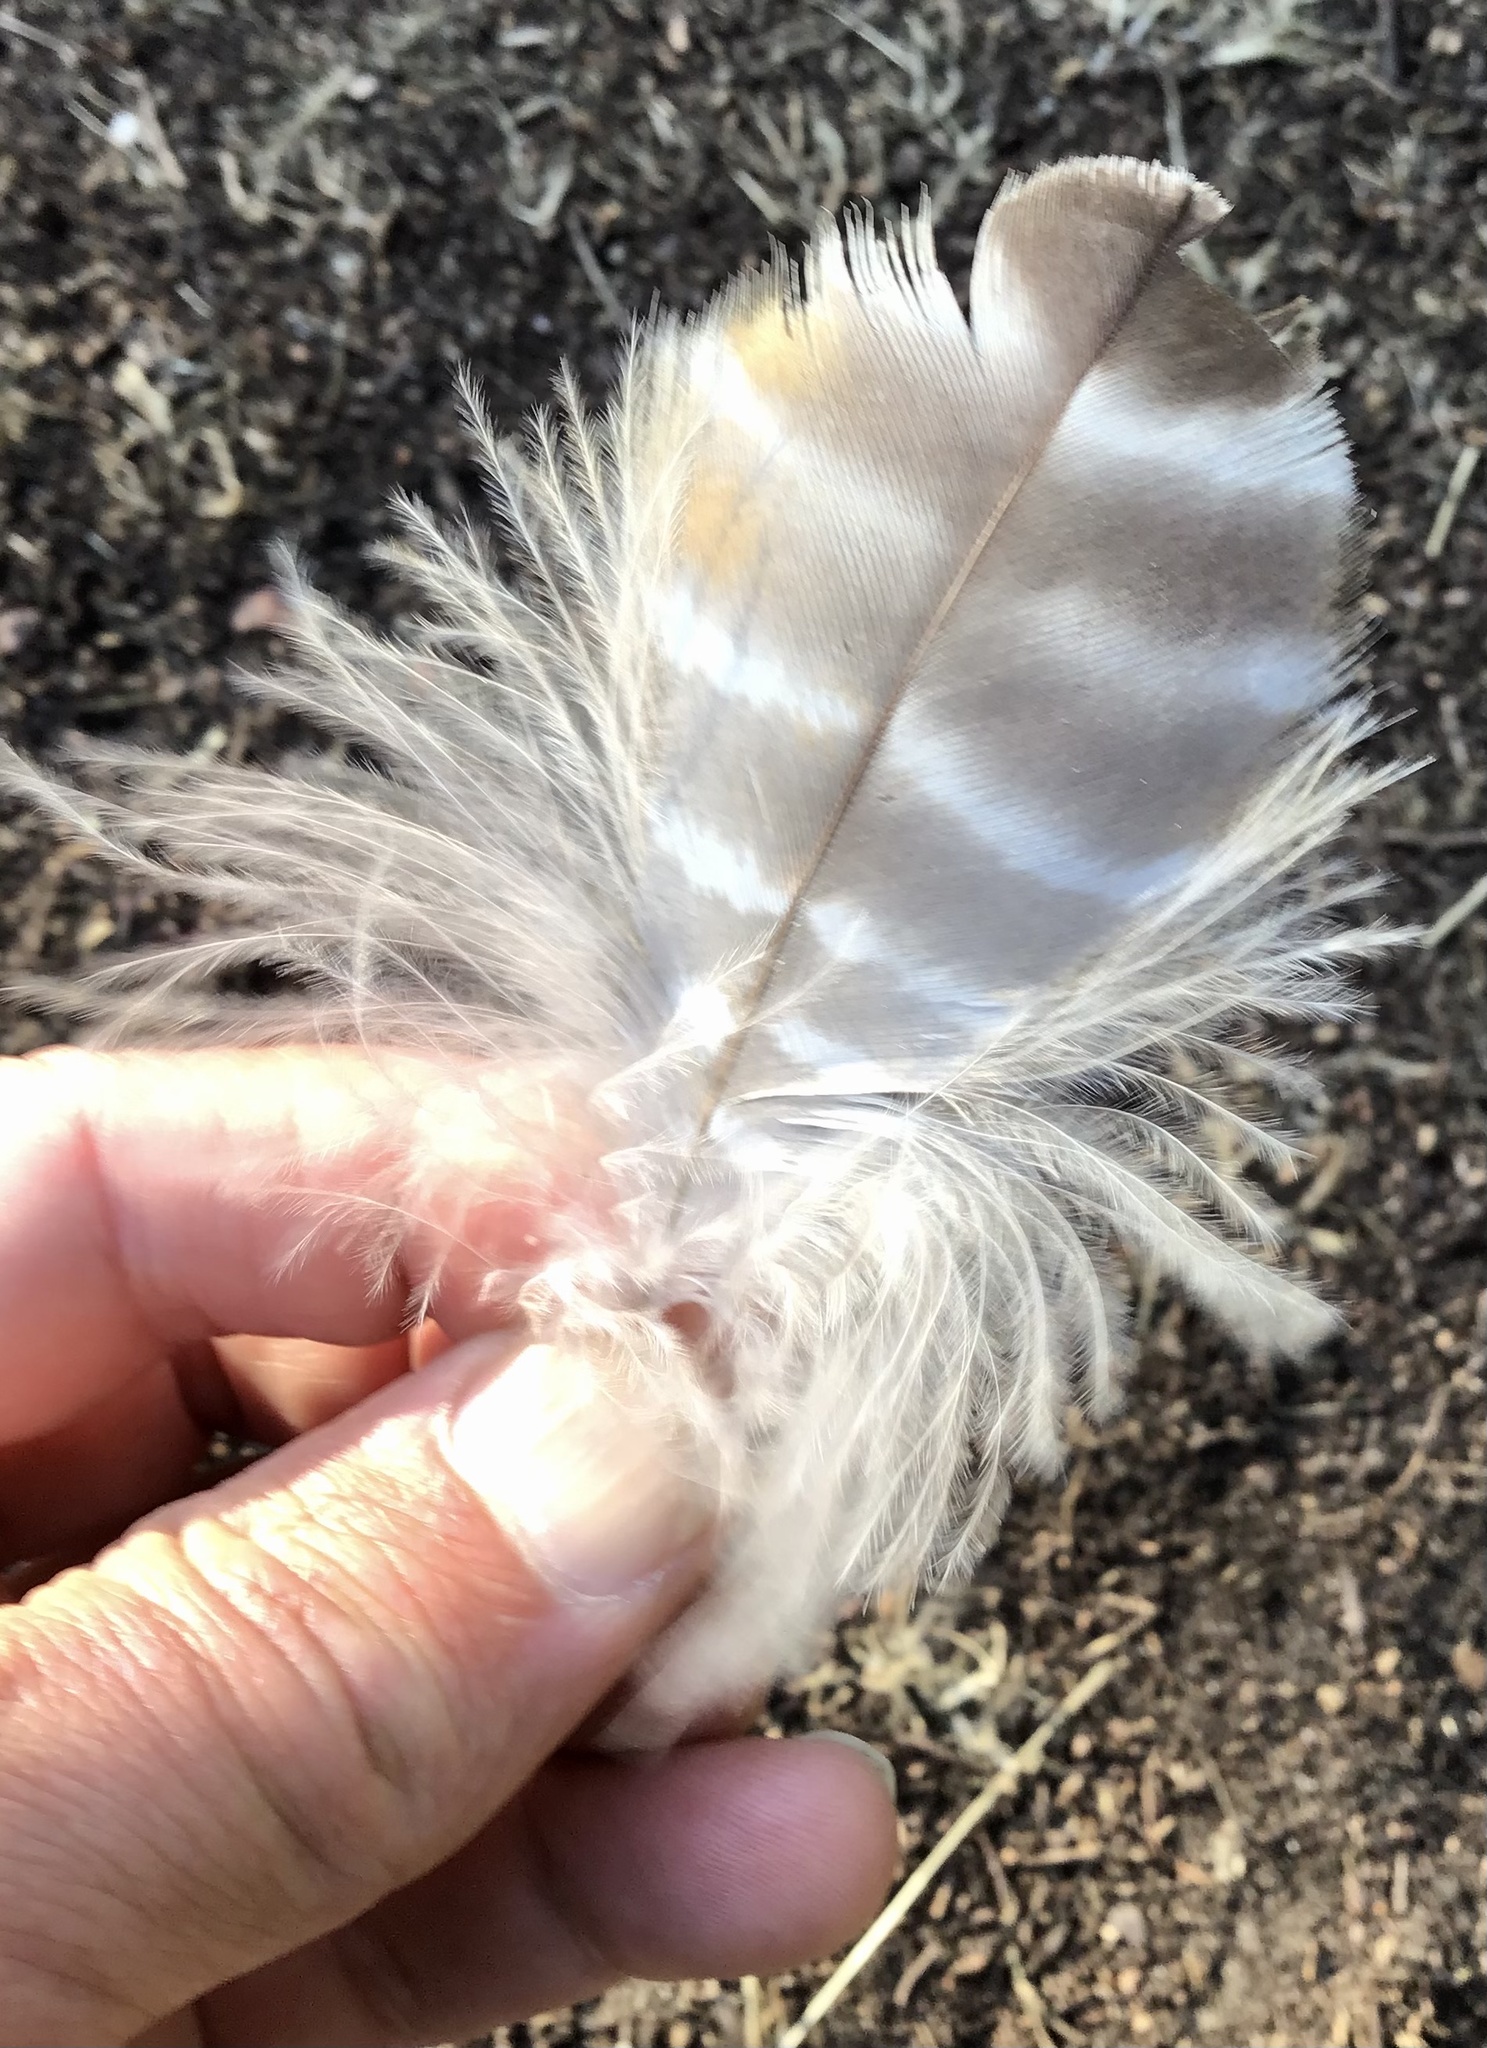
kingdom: Animalia
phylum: Chordata
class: Aves
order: Accipitriformes
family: Accipitridae
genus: Buteo
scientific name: Buteo lineatus
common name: Red-shouldered hawk
